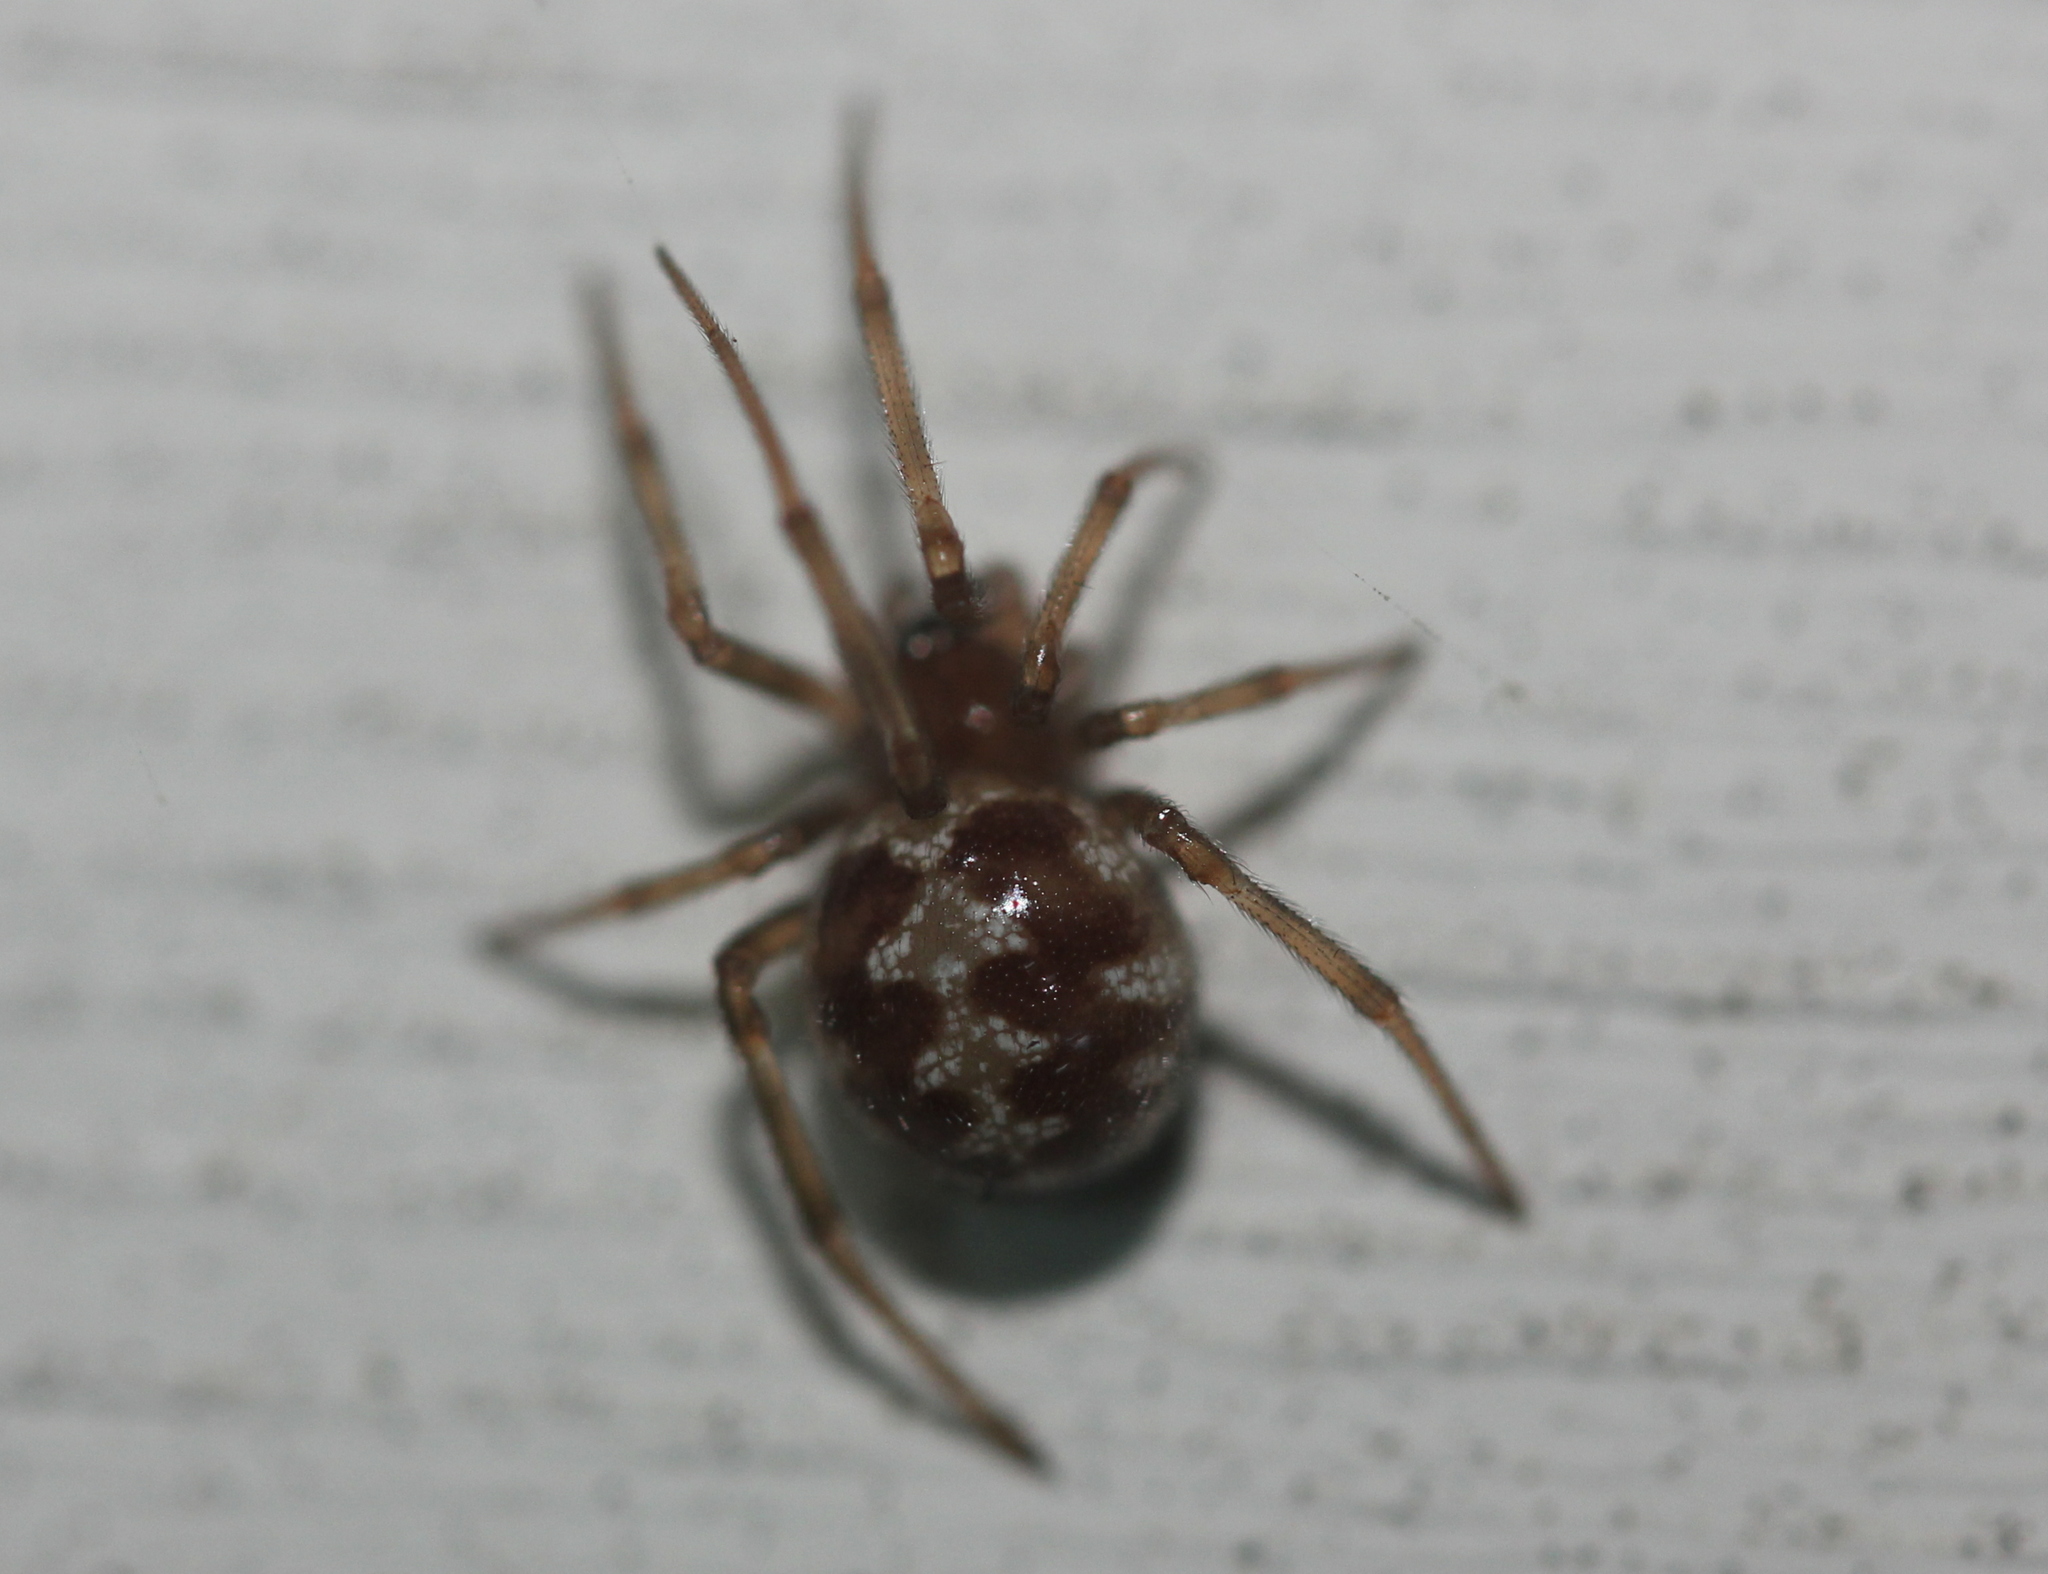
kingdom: Animalia
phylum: Arthropoda
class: Arachnida
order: Araneae
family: Theridiidae
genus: Steatoda
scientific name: Steatoda triangulosa
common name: Triangulate bud spider
